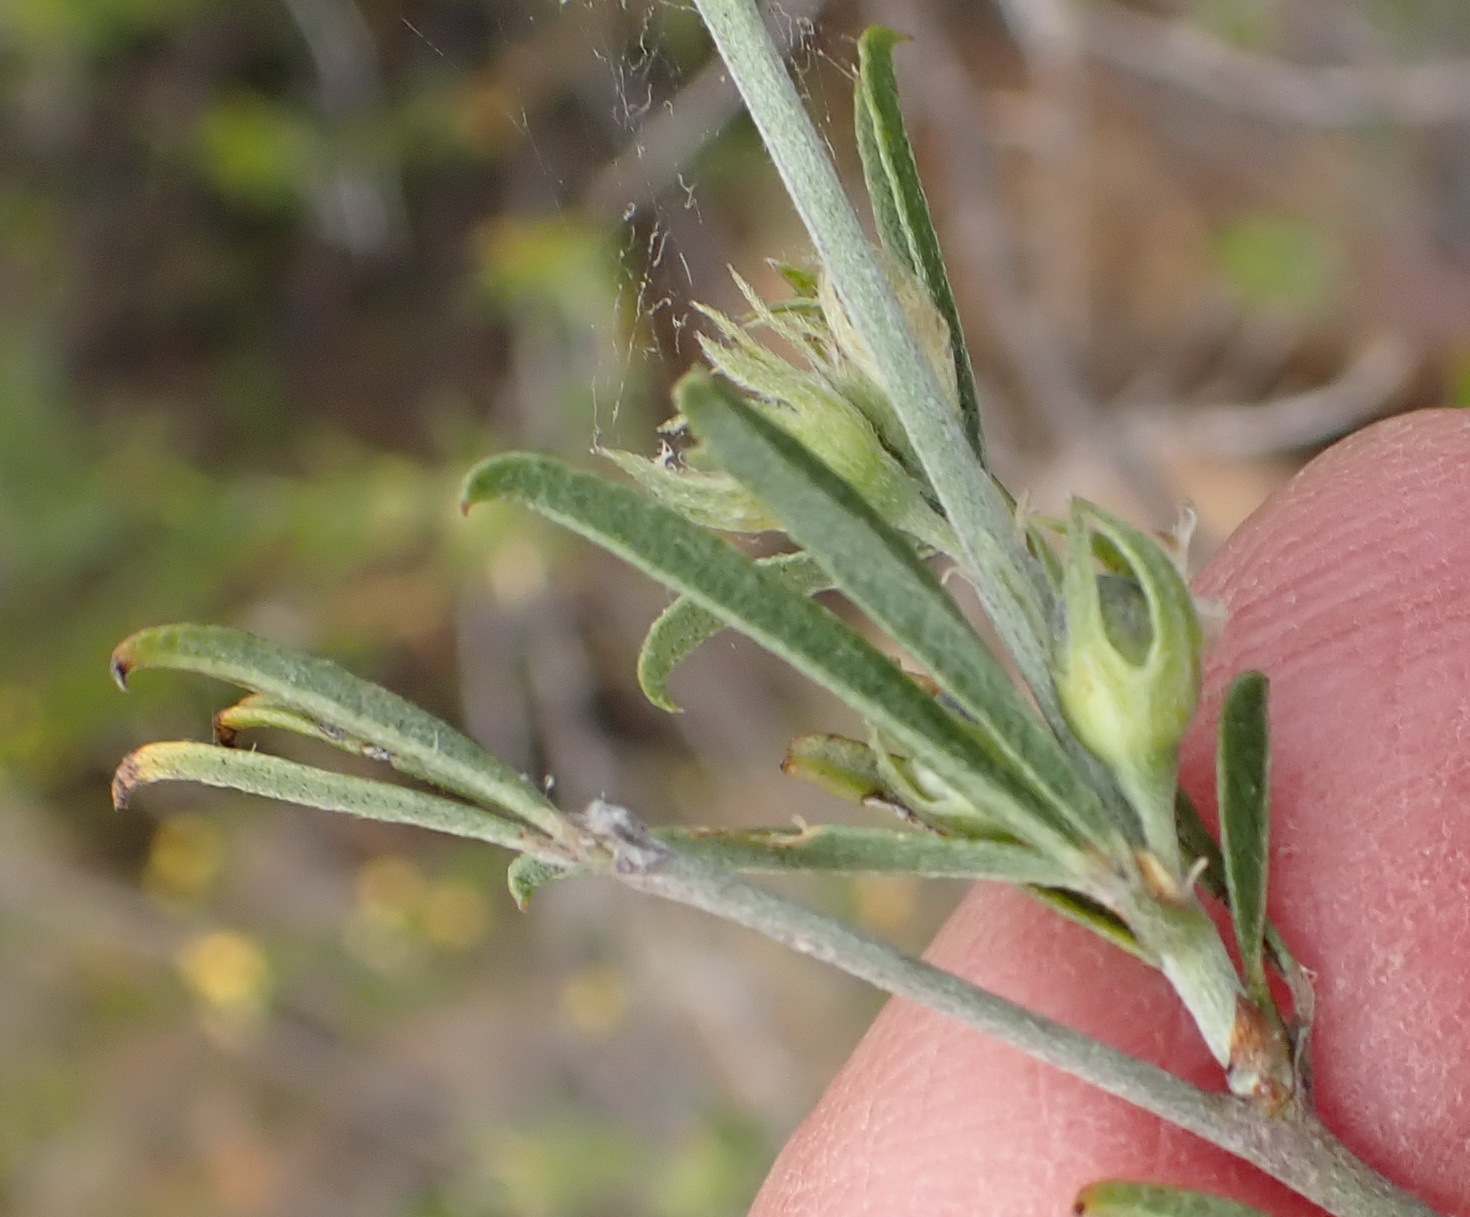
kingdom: Plantae
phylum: Tracheophyta
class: Magnoliopsida
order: Fabales
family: Fabaceae
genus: Psoralea
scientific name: Psoralea candicans
